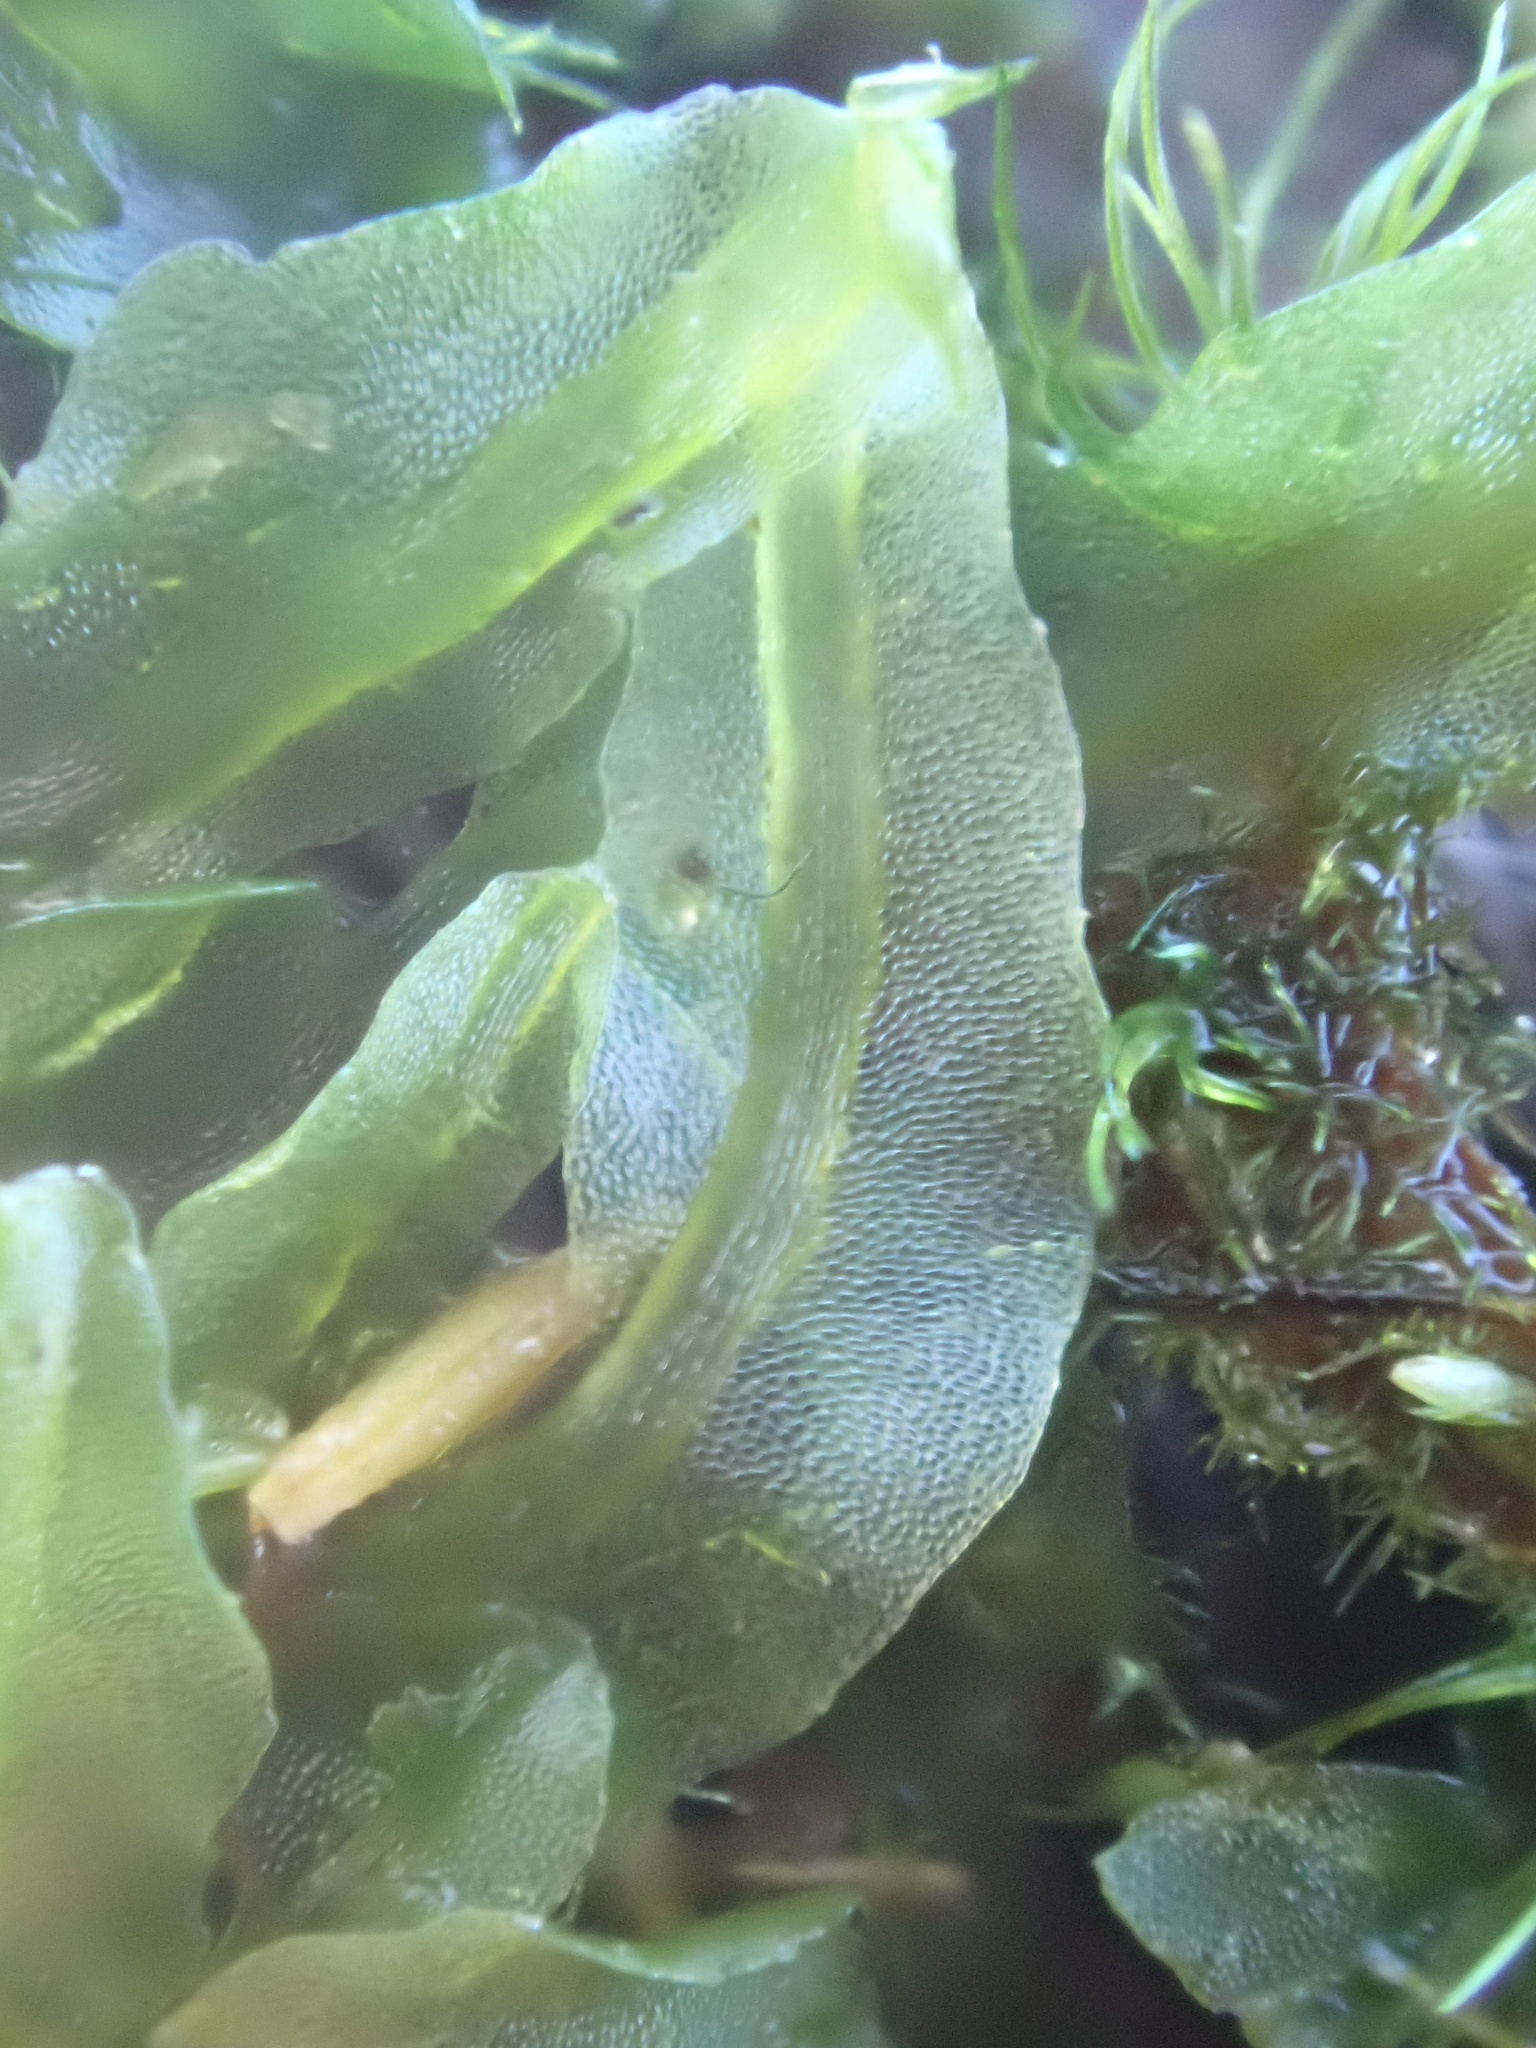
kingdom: Plantae
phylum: Marchantiophyta
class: Jungermanniopsida
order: Pallaviciniales
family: Pallaviciniaceae
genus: Pallavicinia
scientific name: Pallavicinia lyellii
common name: Veilwort
